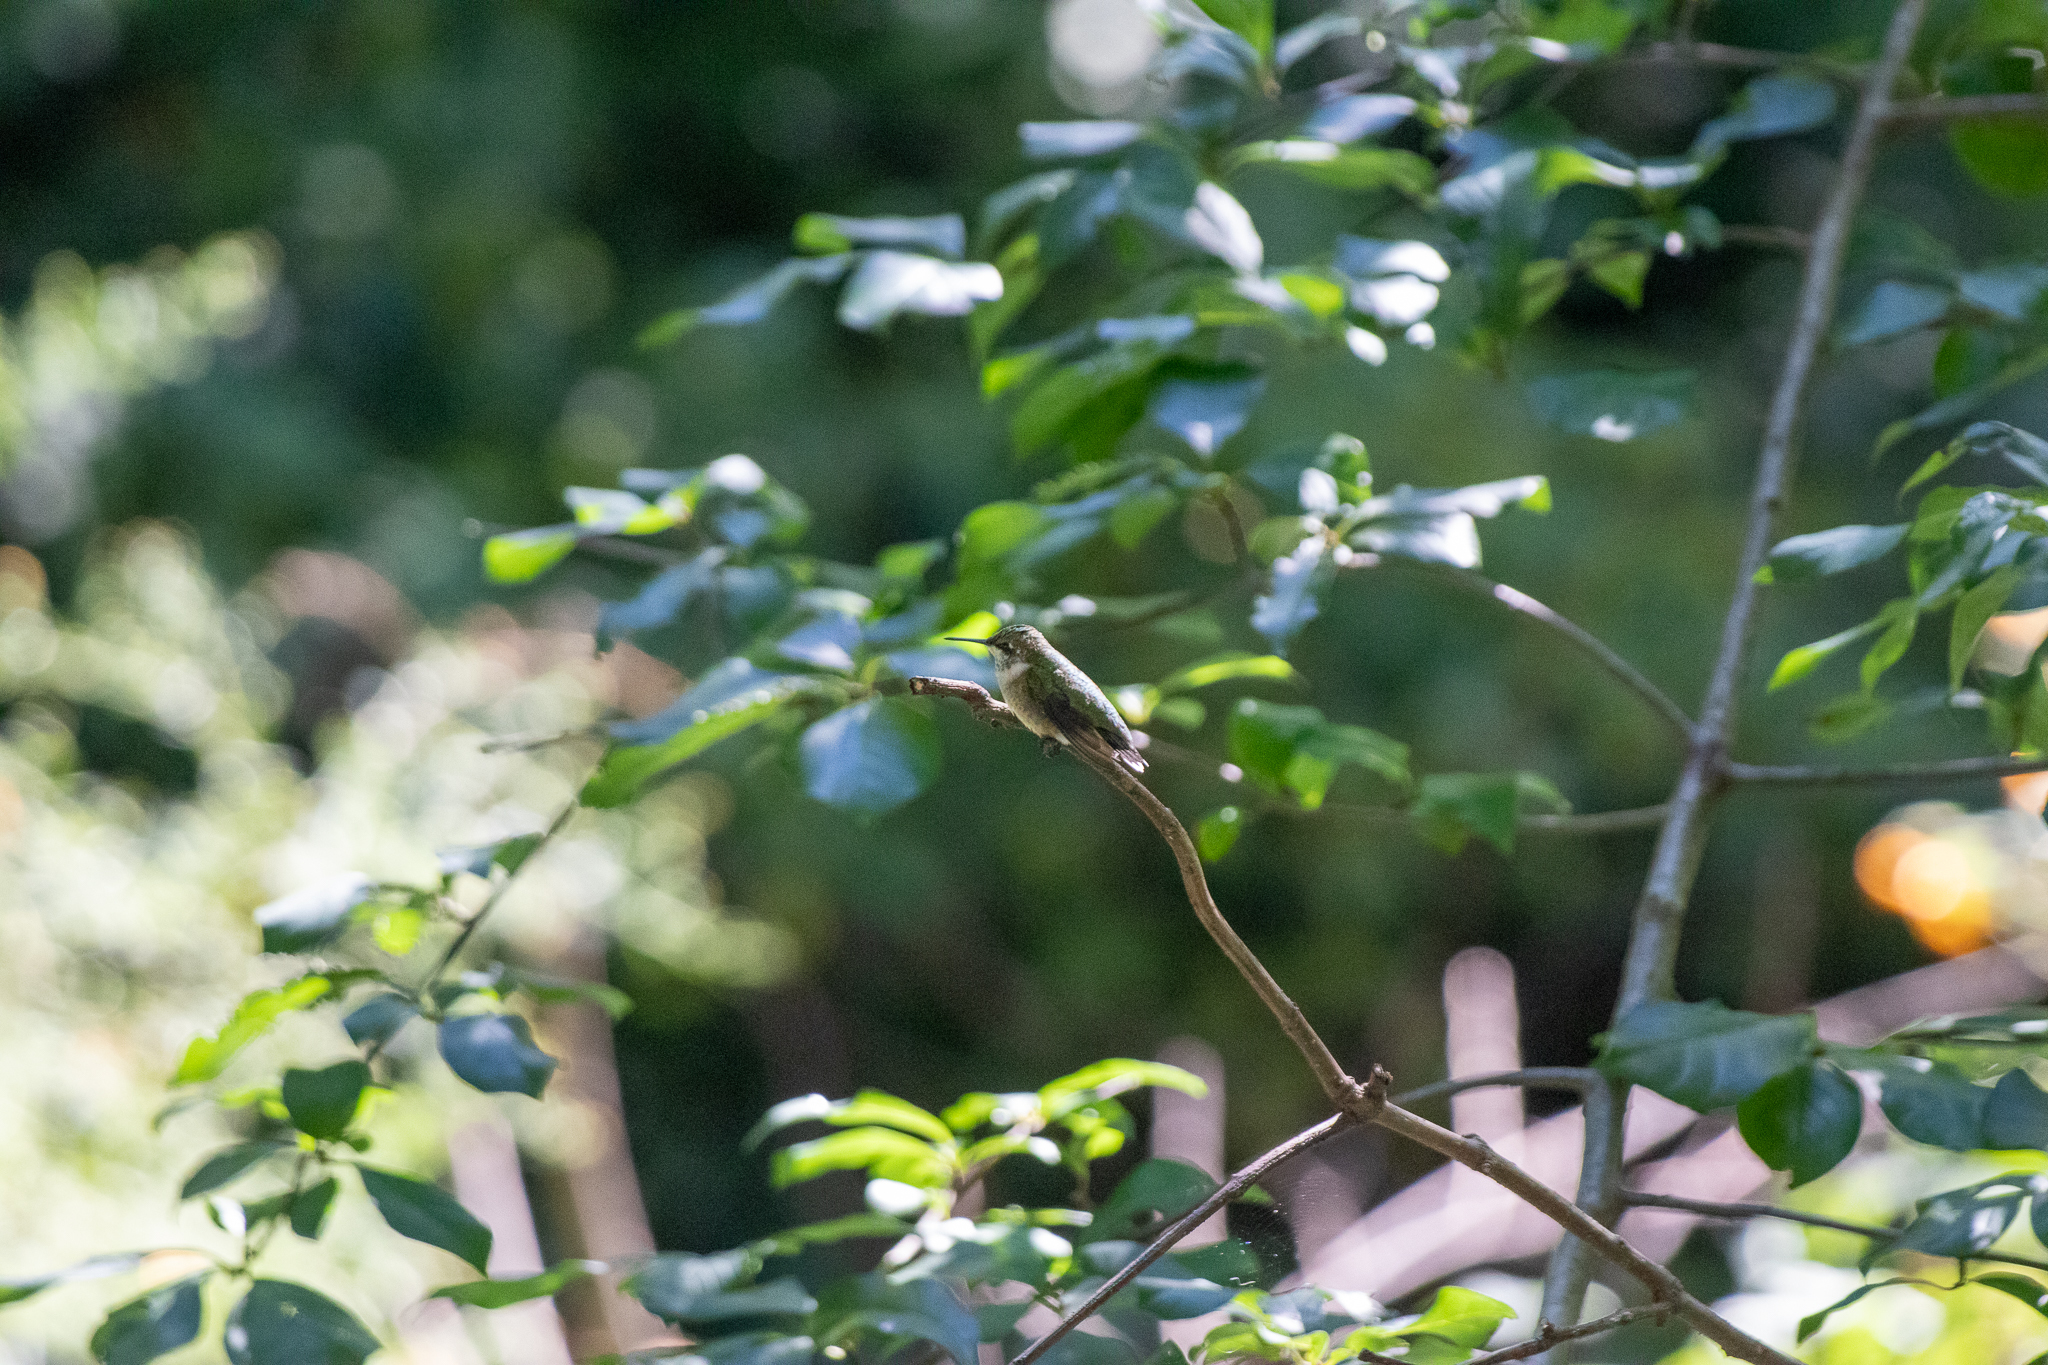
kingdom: Animalia
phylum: Chordata
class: Aves
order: Apodiformes
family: Trochilidae
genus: Archilochus
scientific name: Archilochus colubris
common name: Ruby-throated hummingbird
